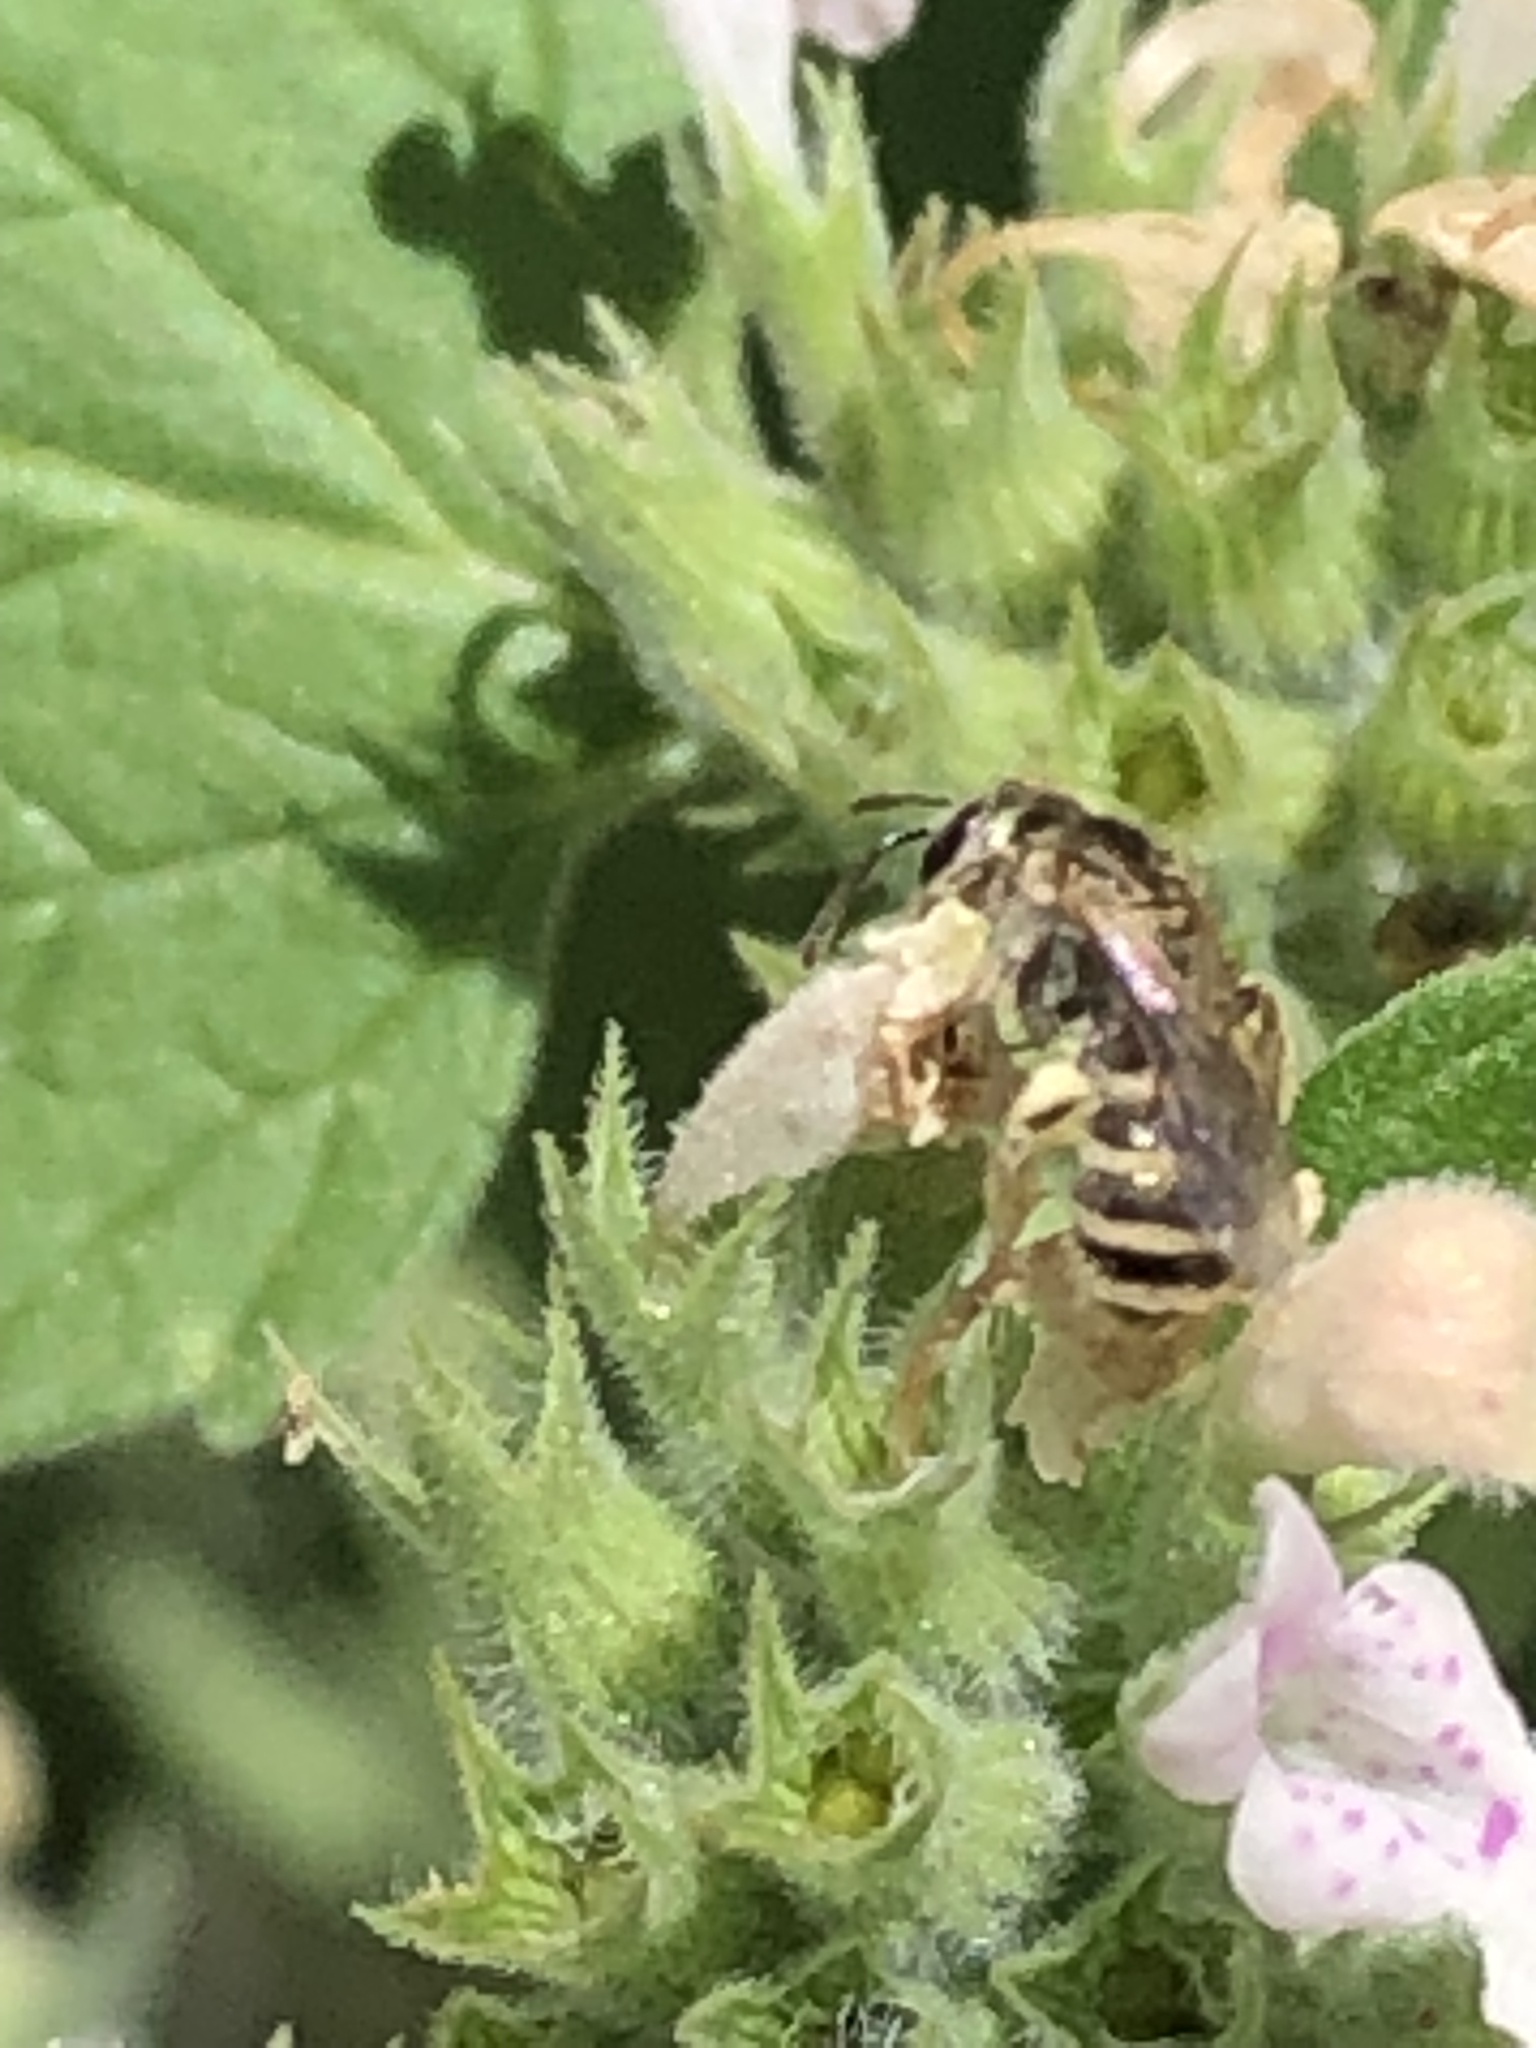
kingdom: Animalia
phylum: Arthropoda
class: Insecta
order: Hymenoptera
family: Halictidae
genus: Halictus
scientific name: Halictus tripartitus
